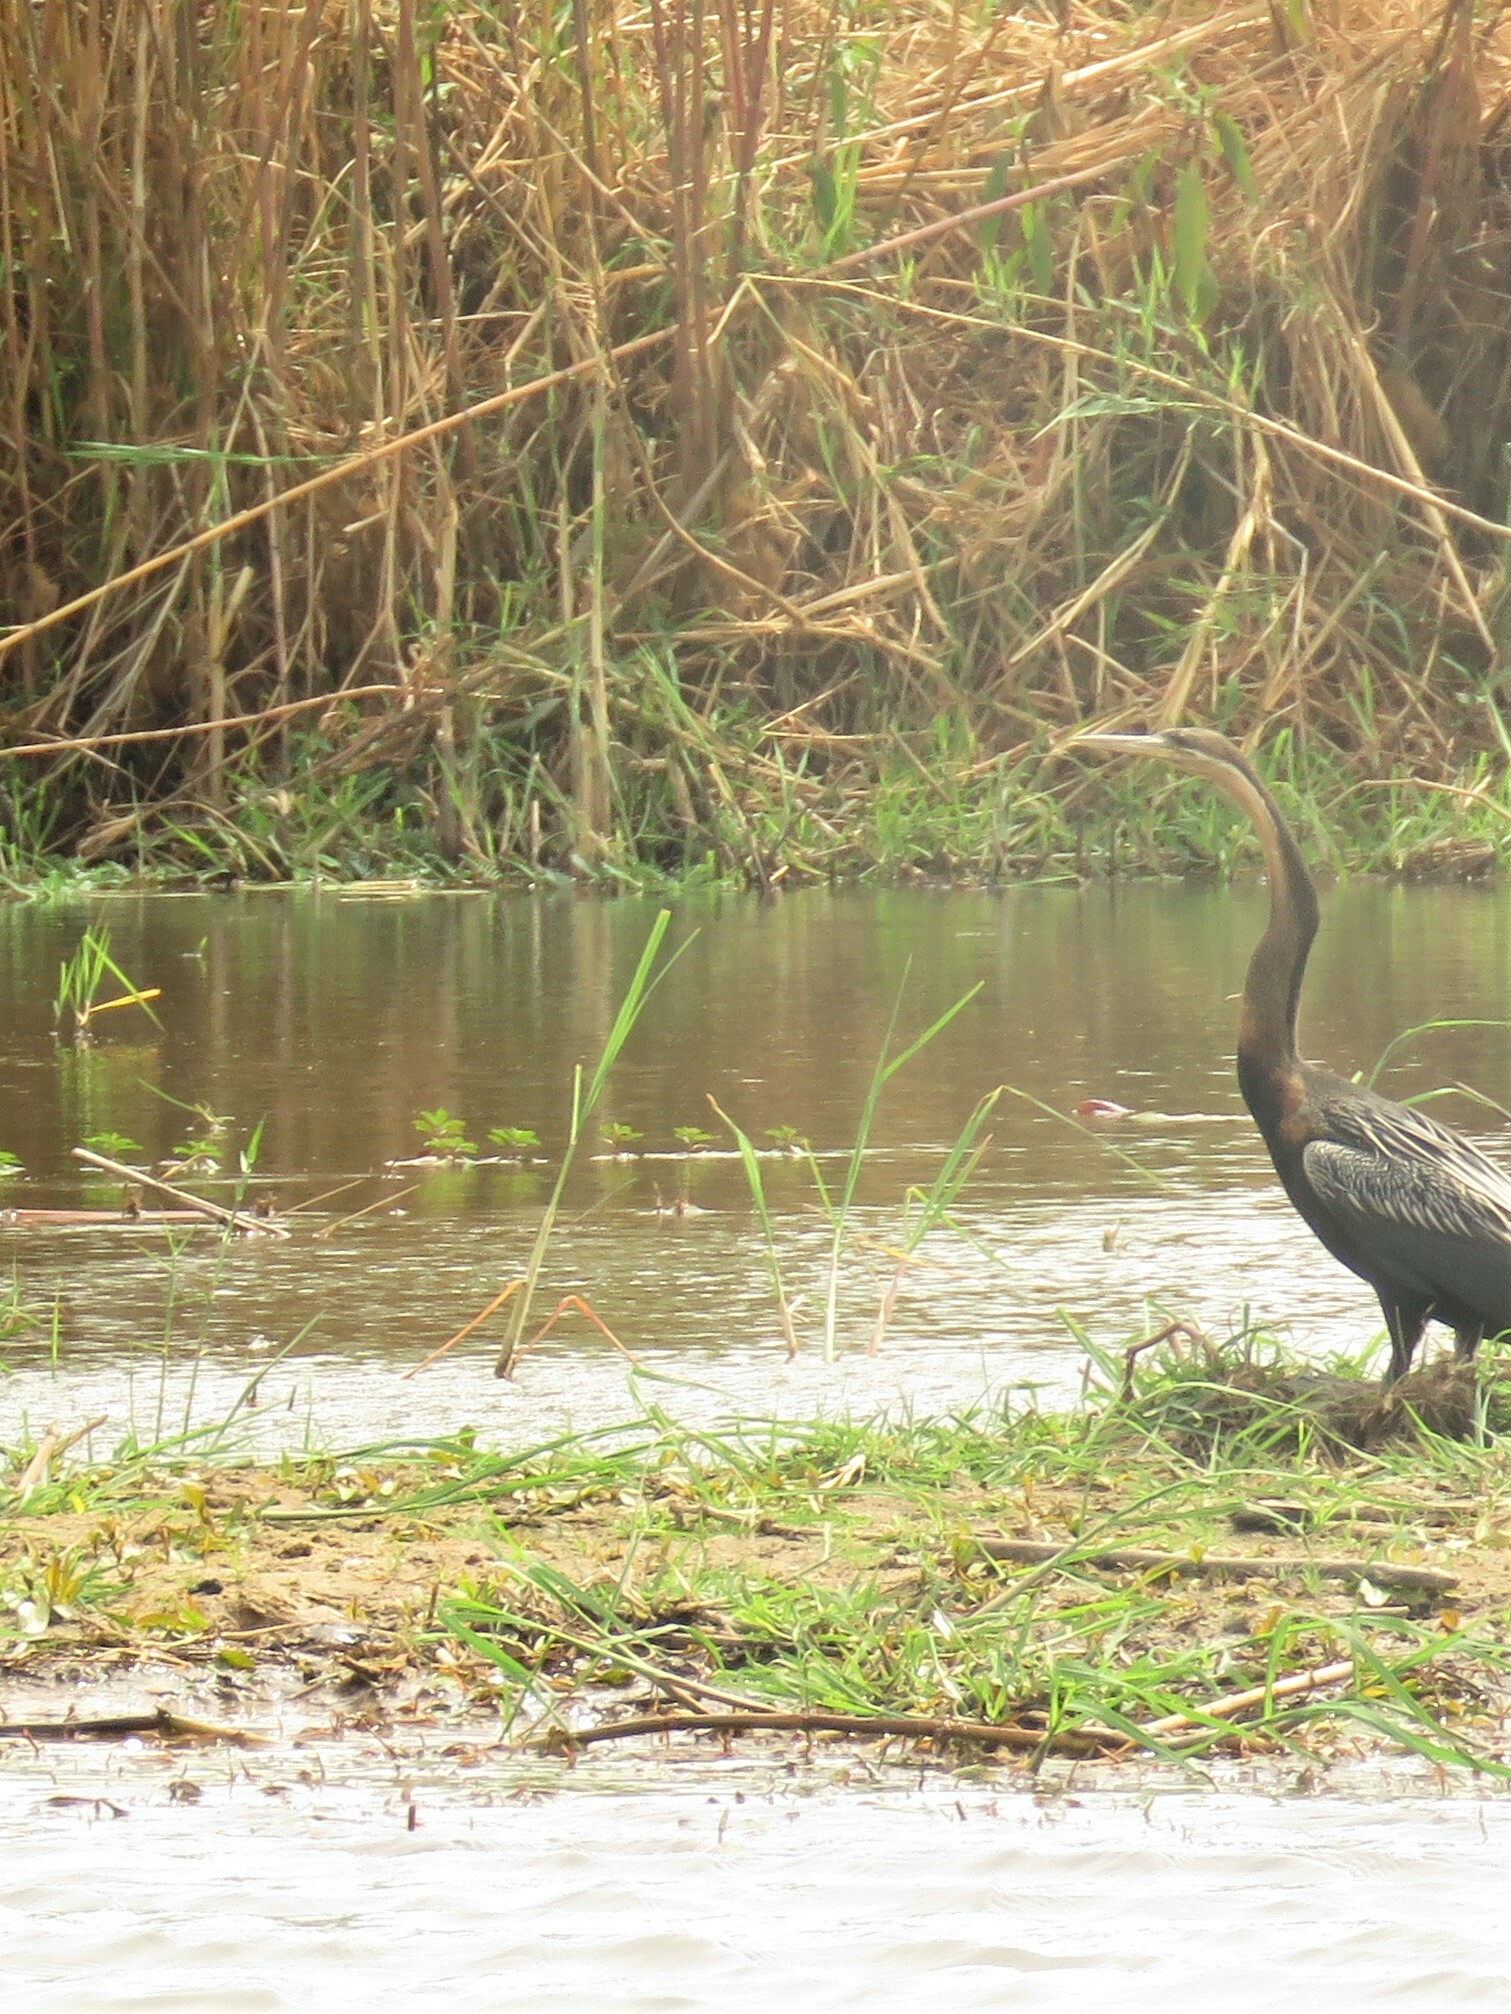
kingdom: Animalia
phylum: Chordata
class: Aves
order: Suliformes
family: Anhingidae
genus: Anhinga
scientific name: Anhinga rufa
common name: African darter
